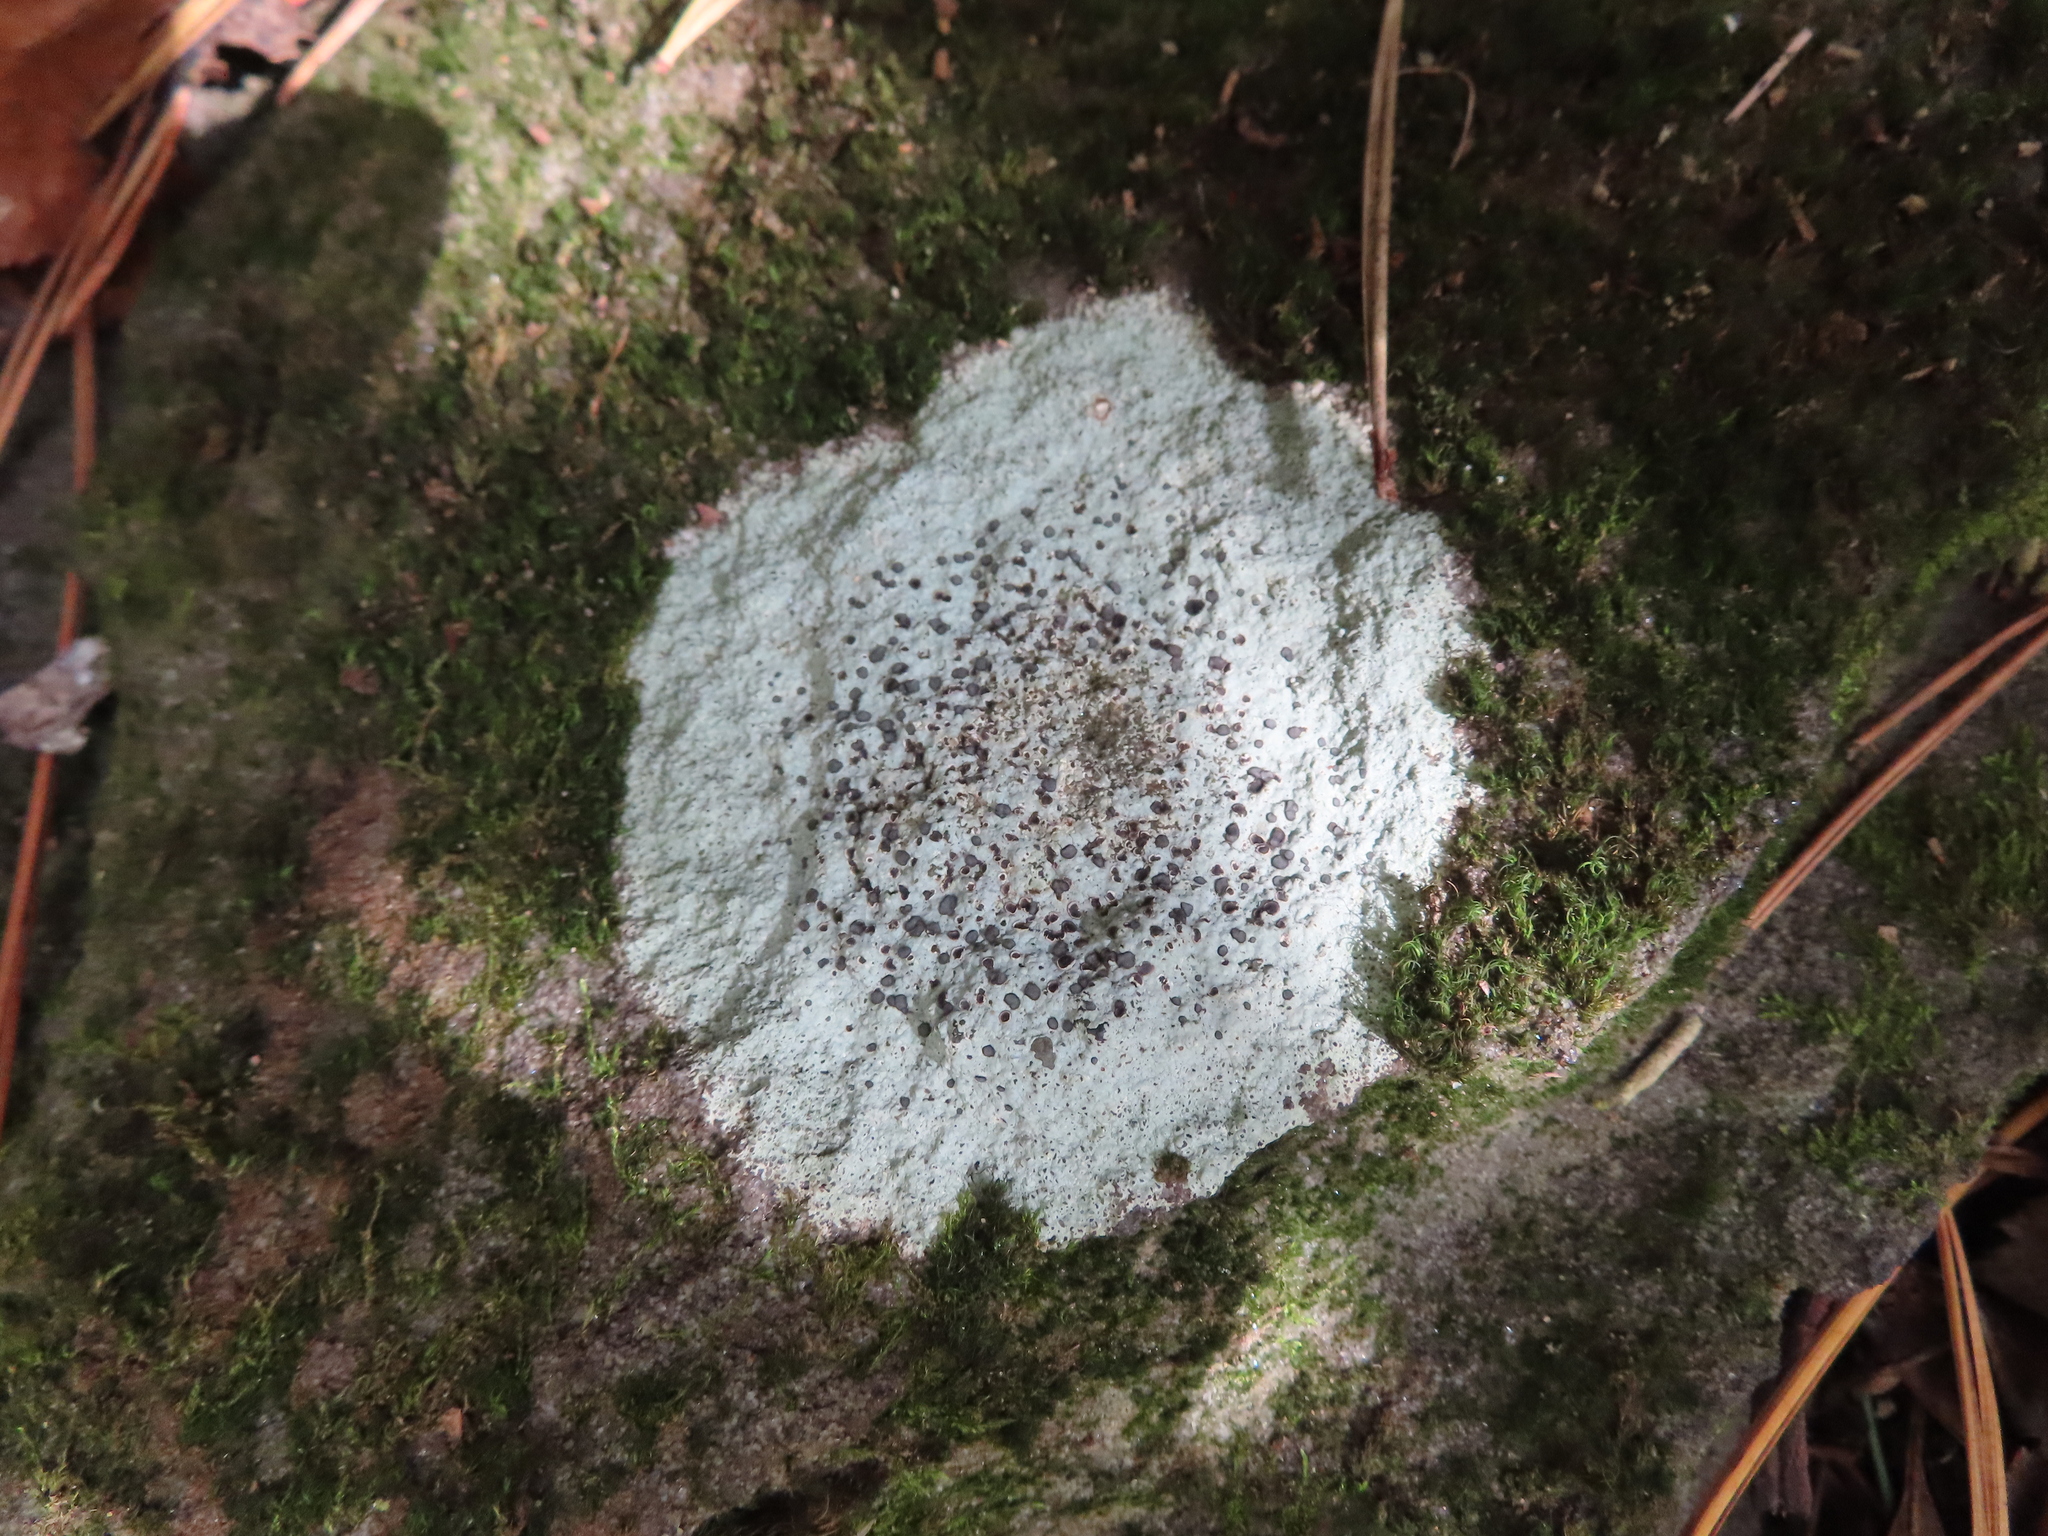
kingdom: Fungi
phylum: Ascomycota
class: Lecanoromycetes
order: Lecideales
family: Lecideaceae
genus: Porpidia
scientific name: Porpidia albocaerulescens
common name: Smokey-eyed boulder lichen
